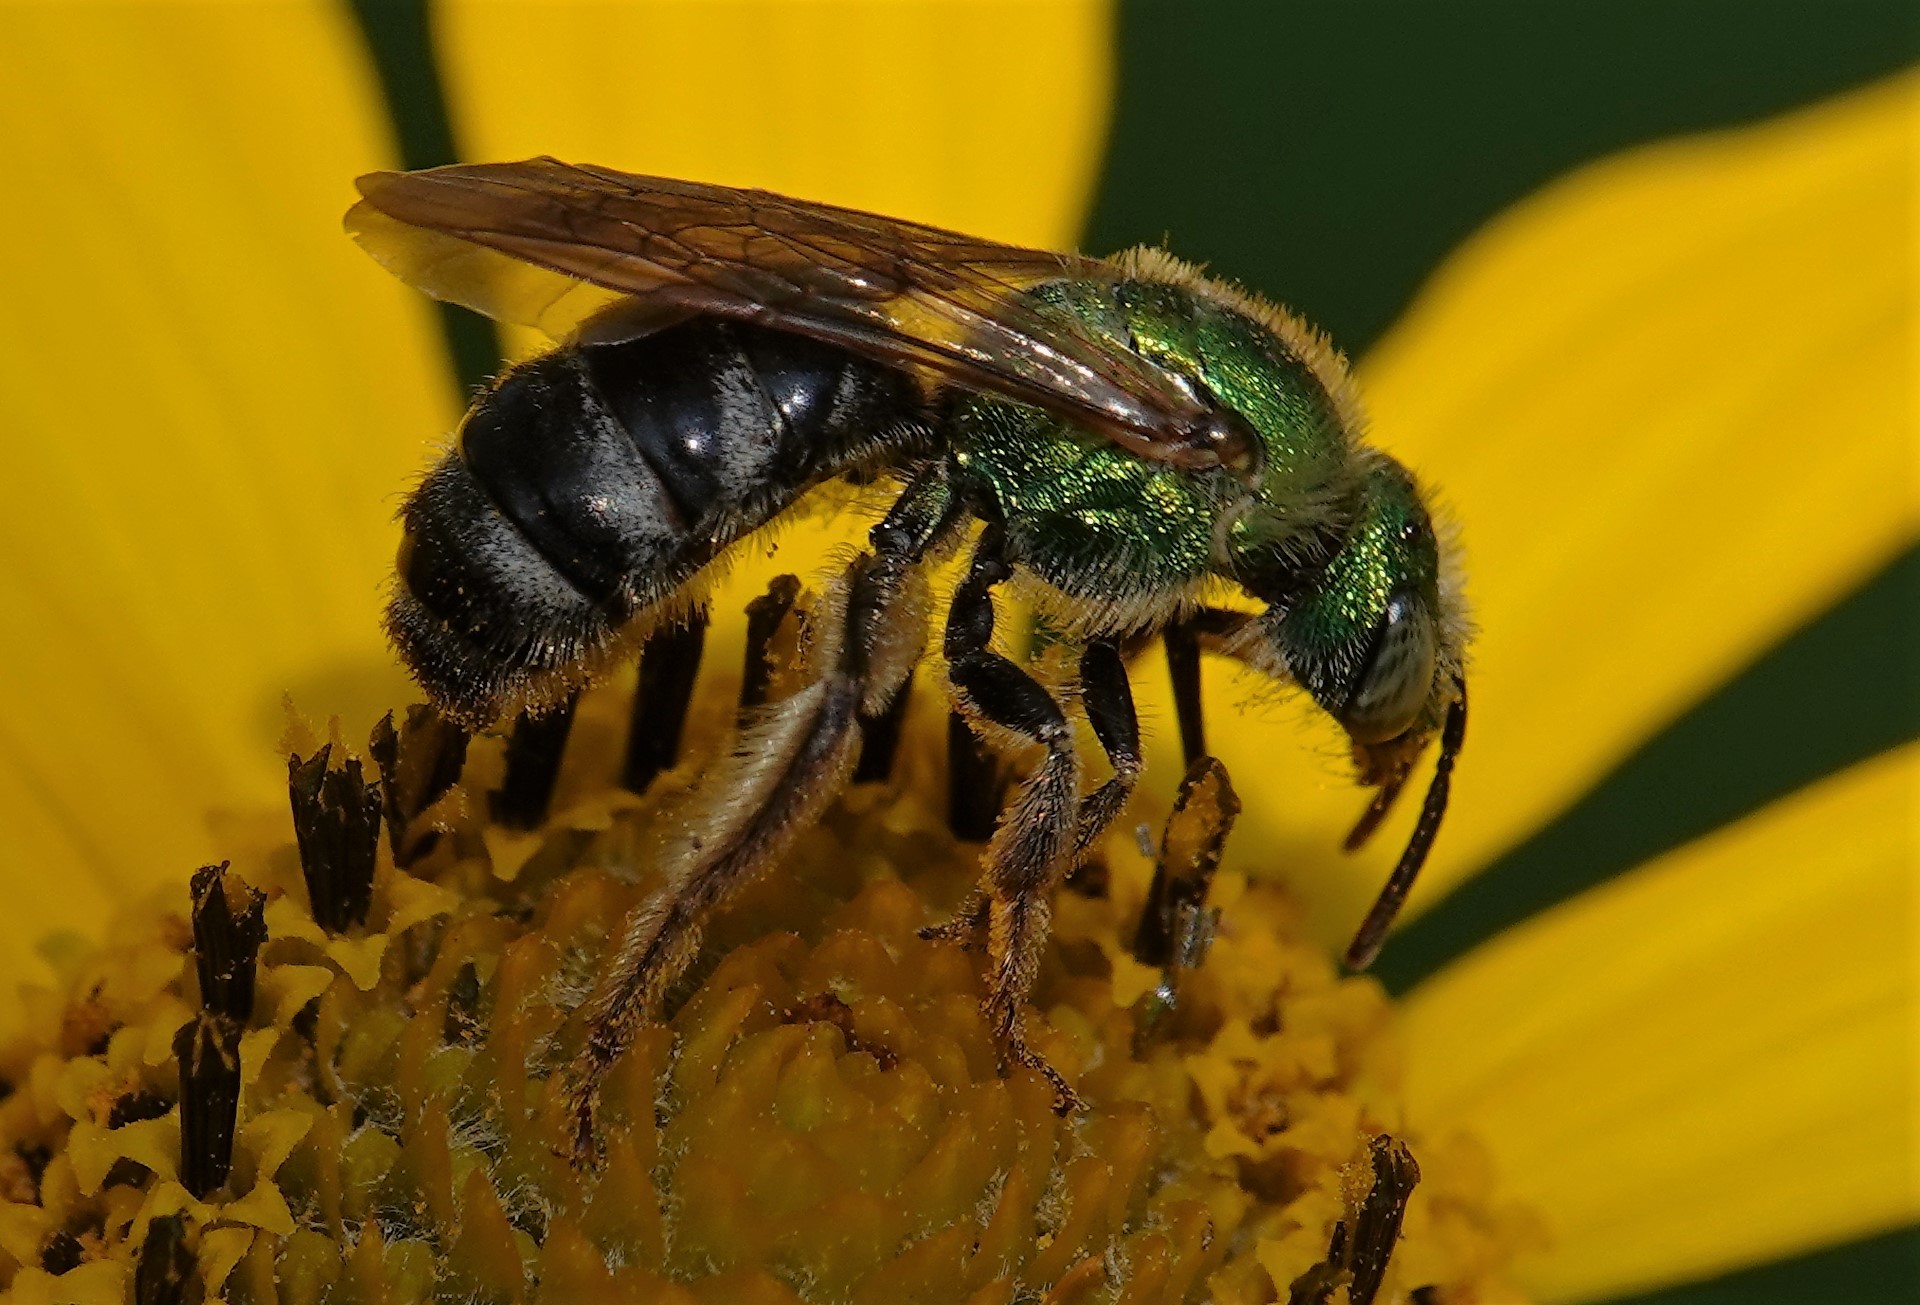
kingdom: Animalia
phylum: Arthropoda
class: Insecta
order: Hymenoptera
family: Halictidae
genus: Agapostemon
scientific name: Agapostemon virescens
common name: Bicolored striped sweat bee
